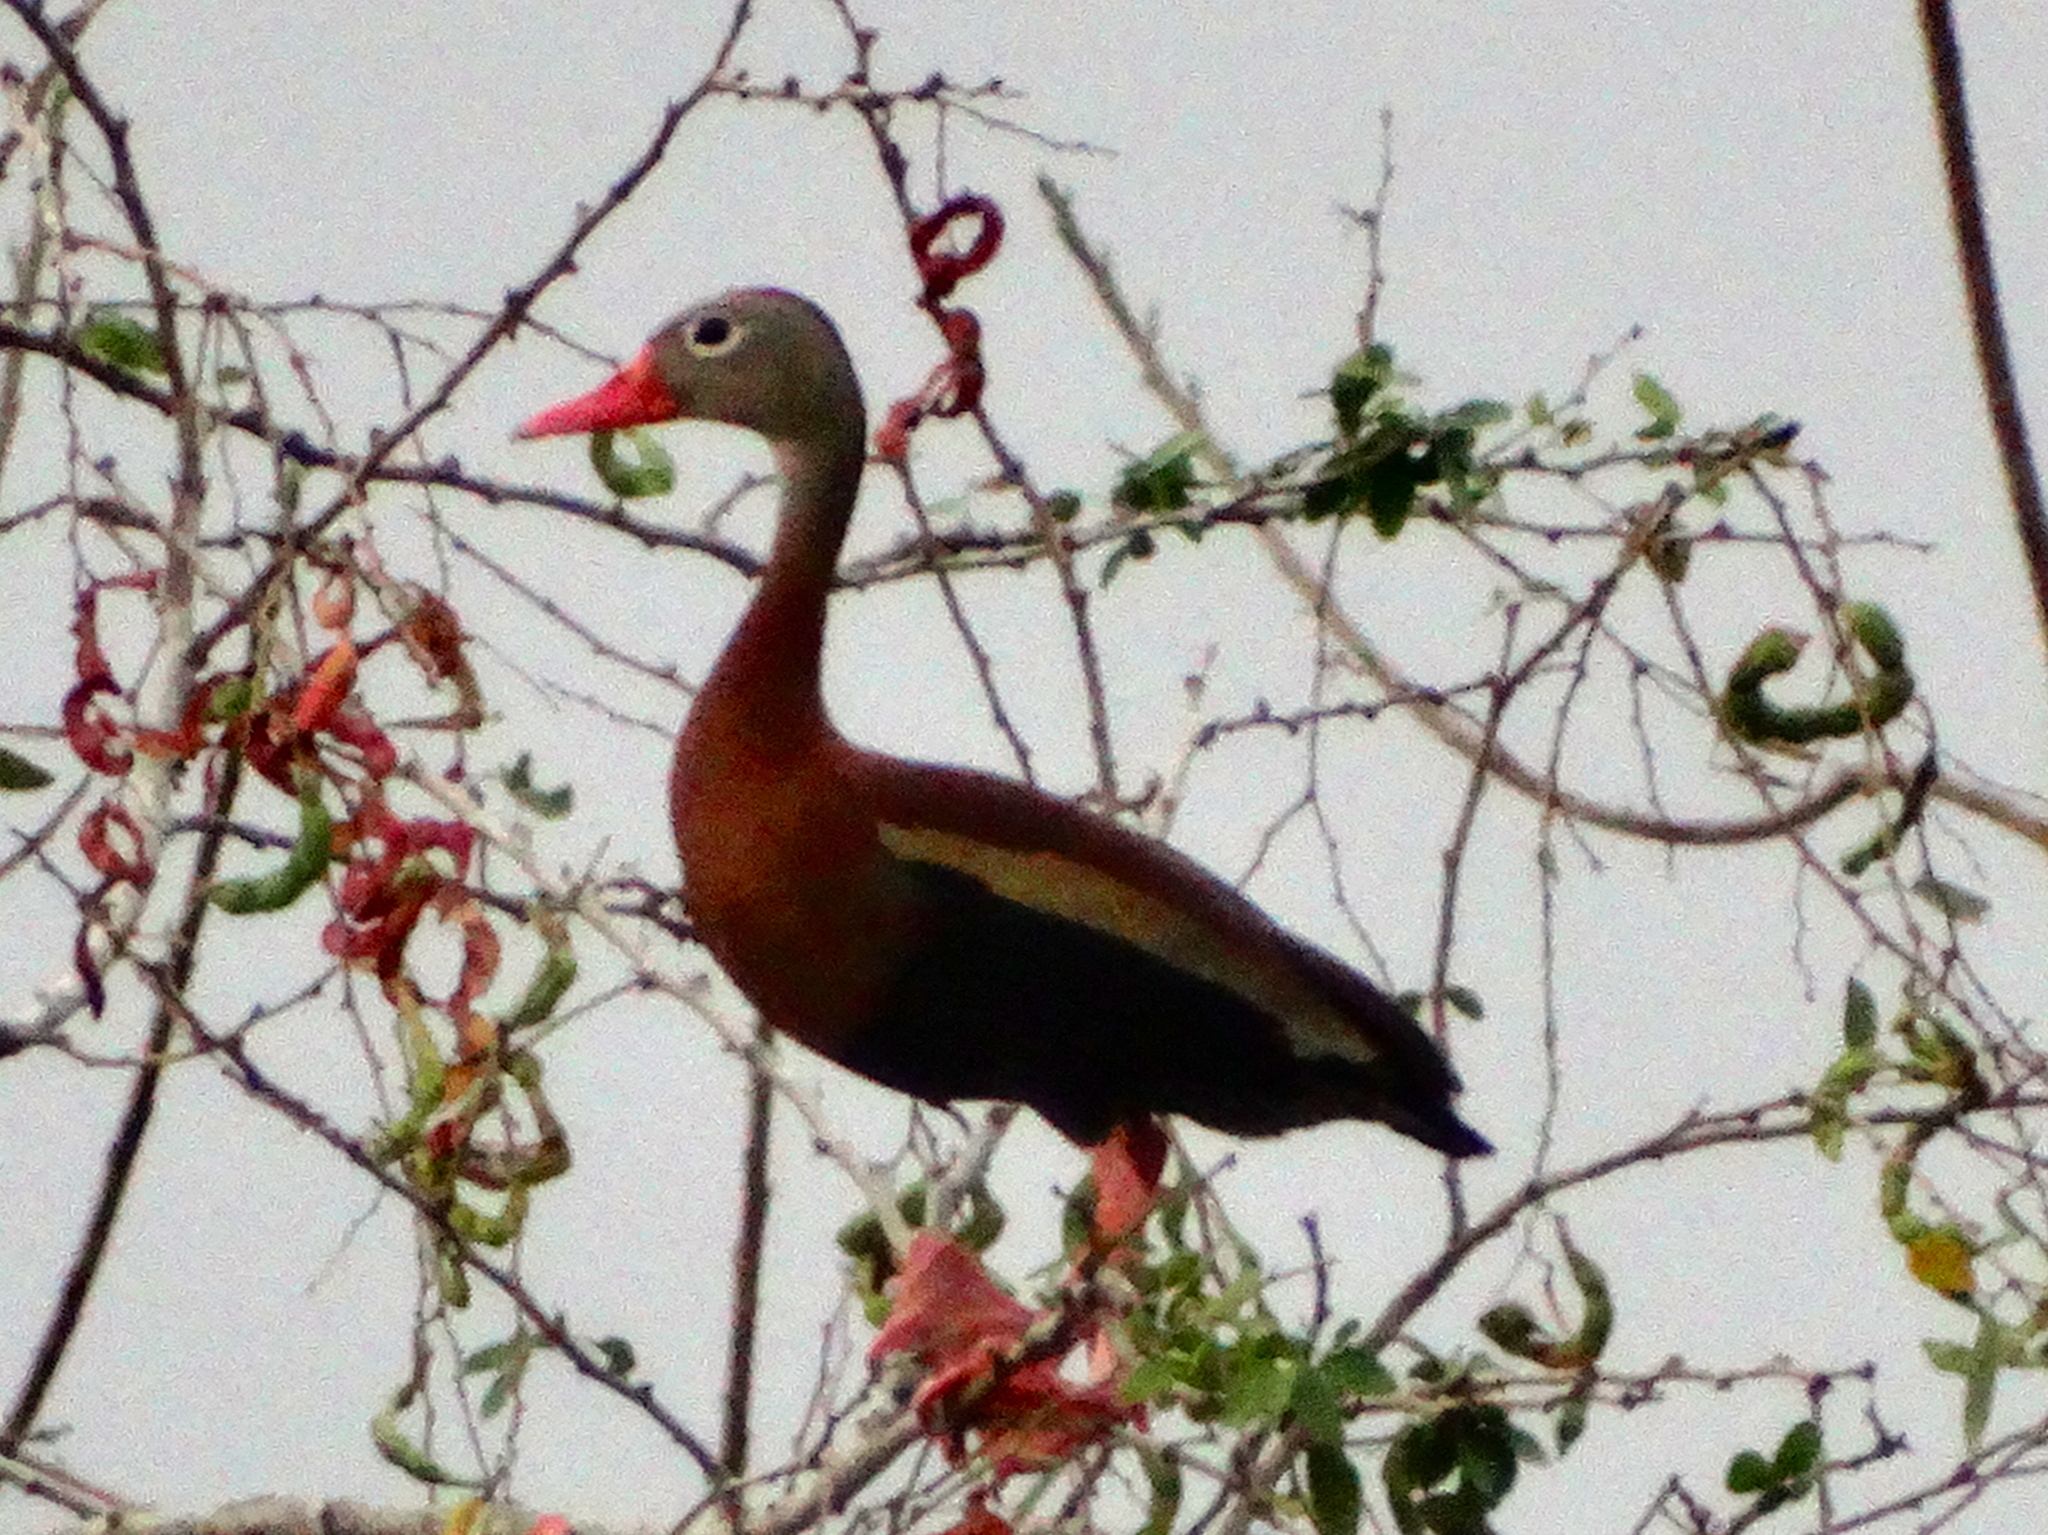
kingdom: Animalia
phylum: Chordata
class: Aves
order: Anseriformes
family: Anatidae
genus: Dendrocygna
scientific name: Dendrocygna autumnalis
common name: Black-bellied whistling duck
